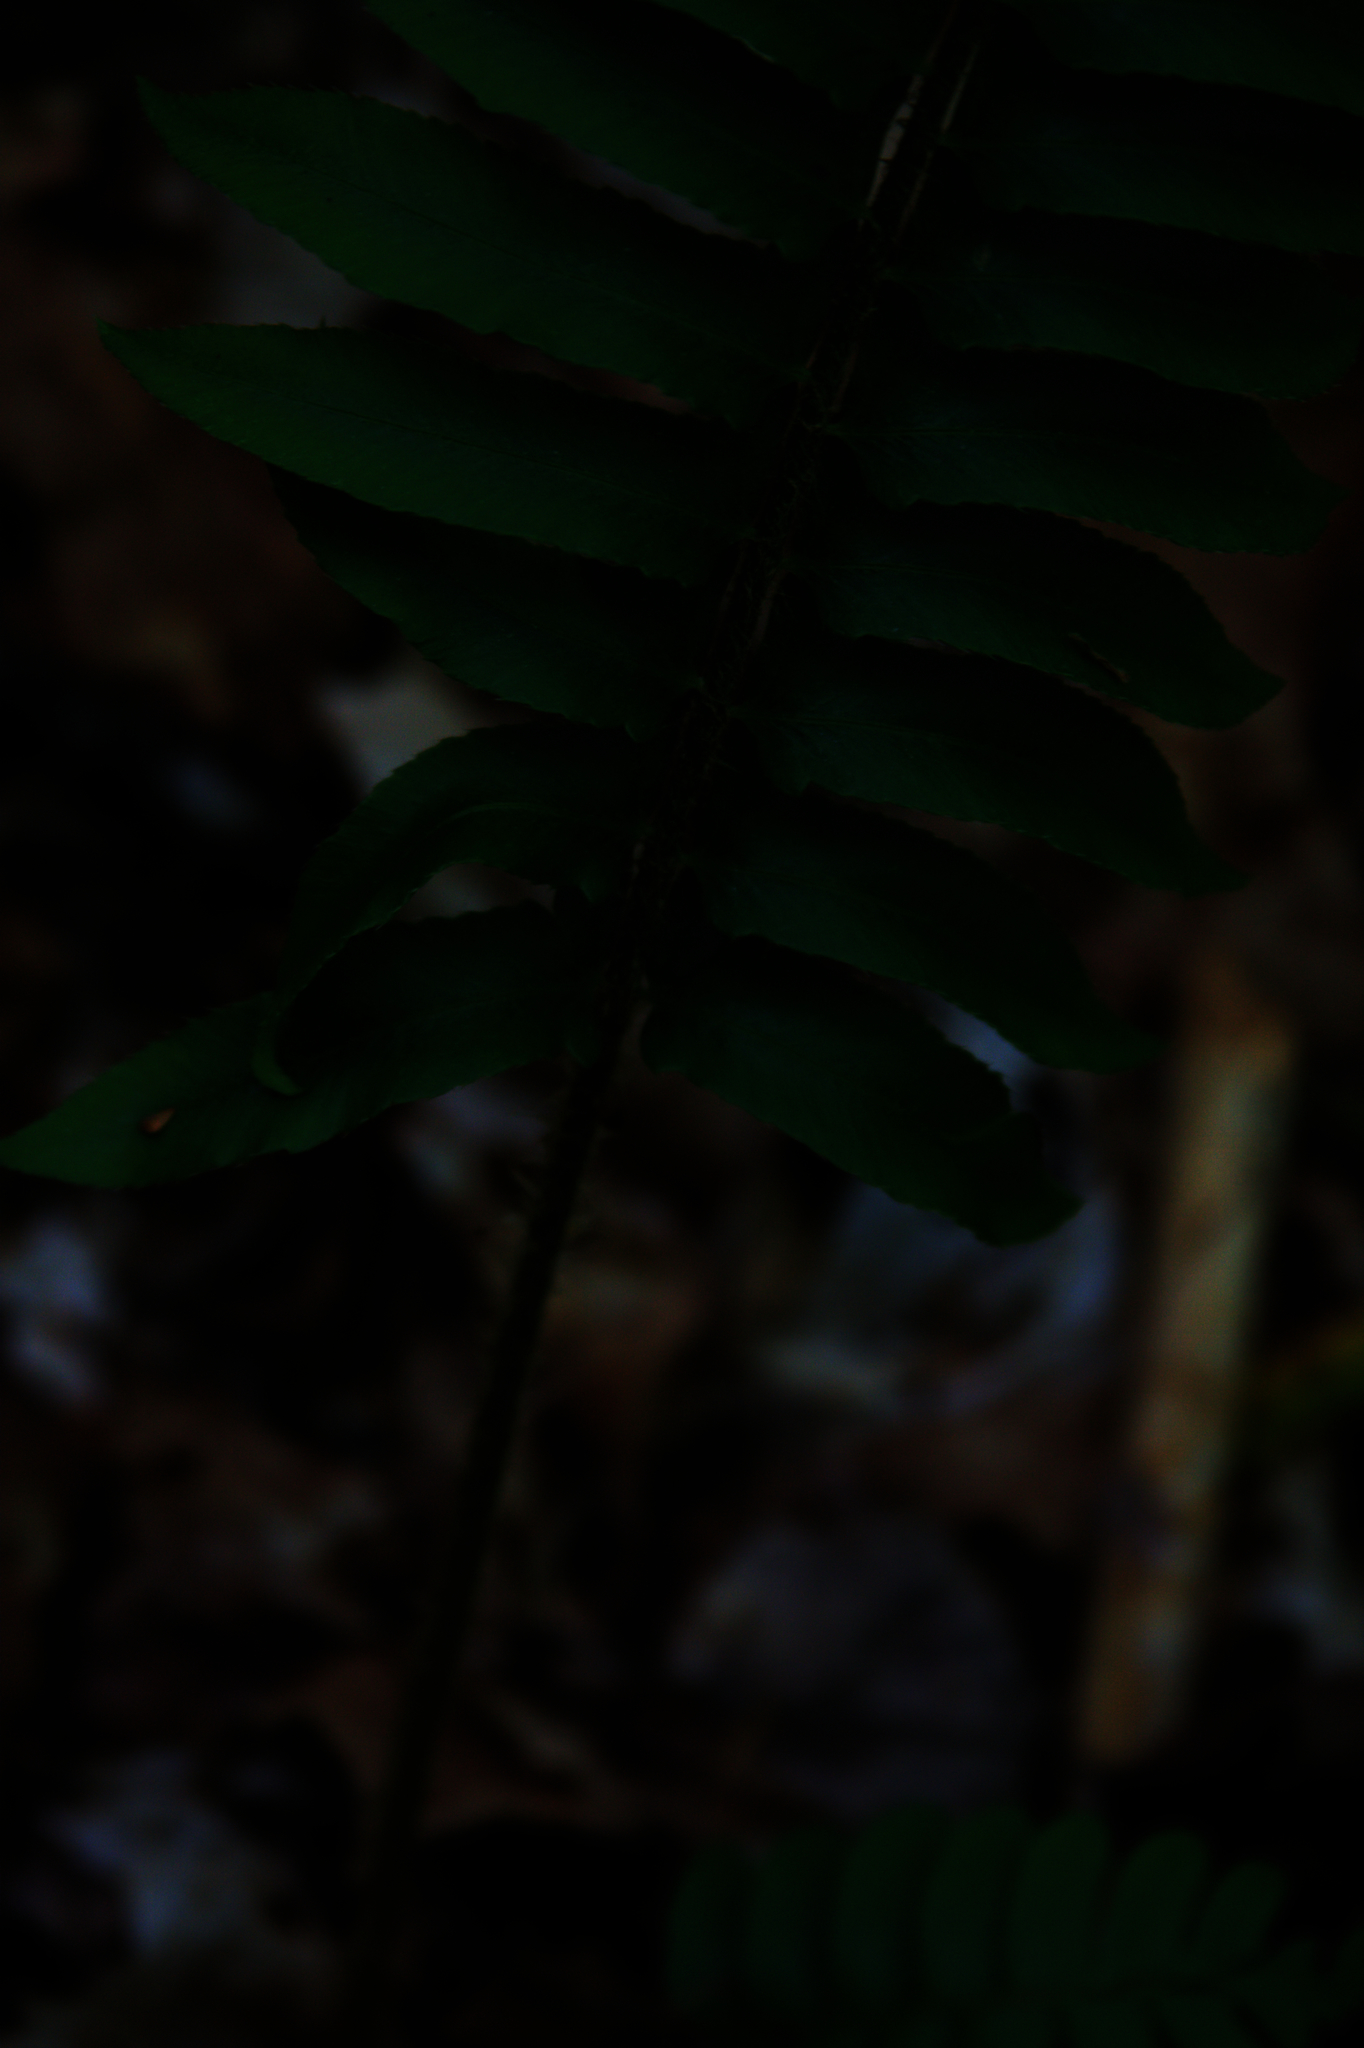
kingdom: Plantae
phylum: Tracheophyta
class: Polypodiopsida
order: Polypodiales
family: Dryopteridaceae
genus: Polystichum
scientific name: Polystichum acrostichoides
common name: Christmas fern
